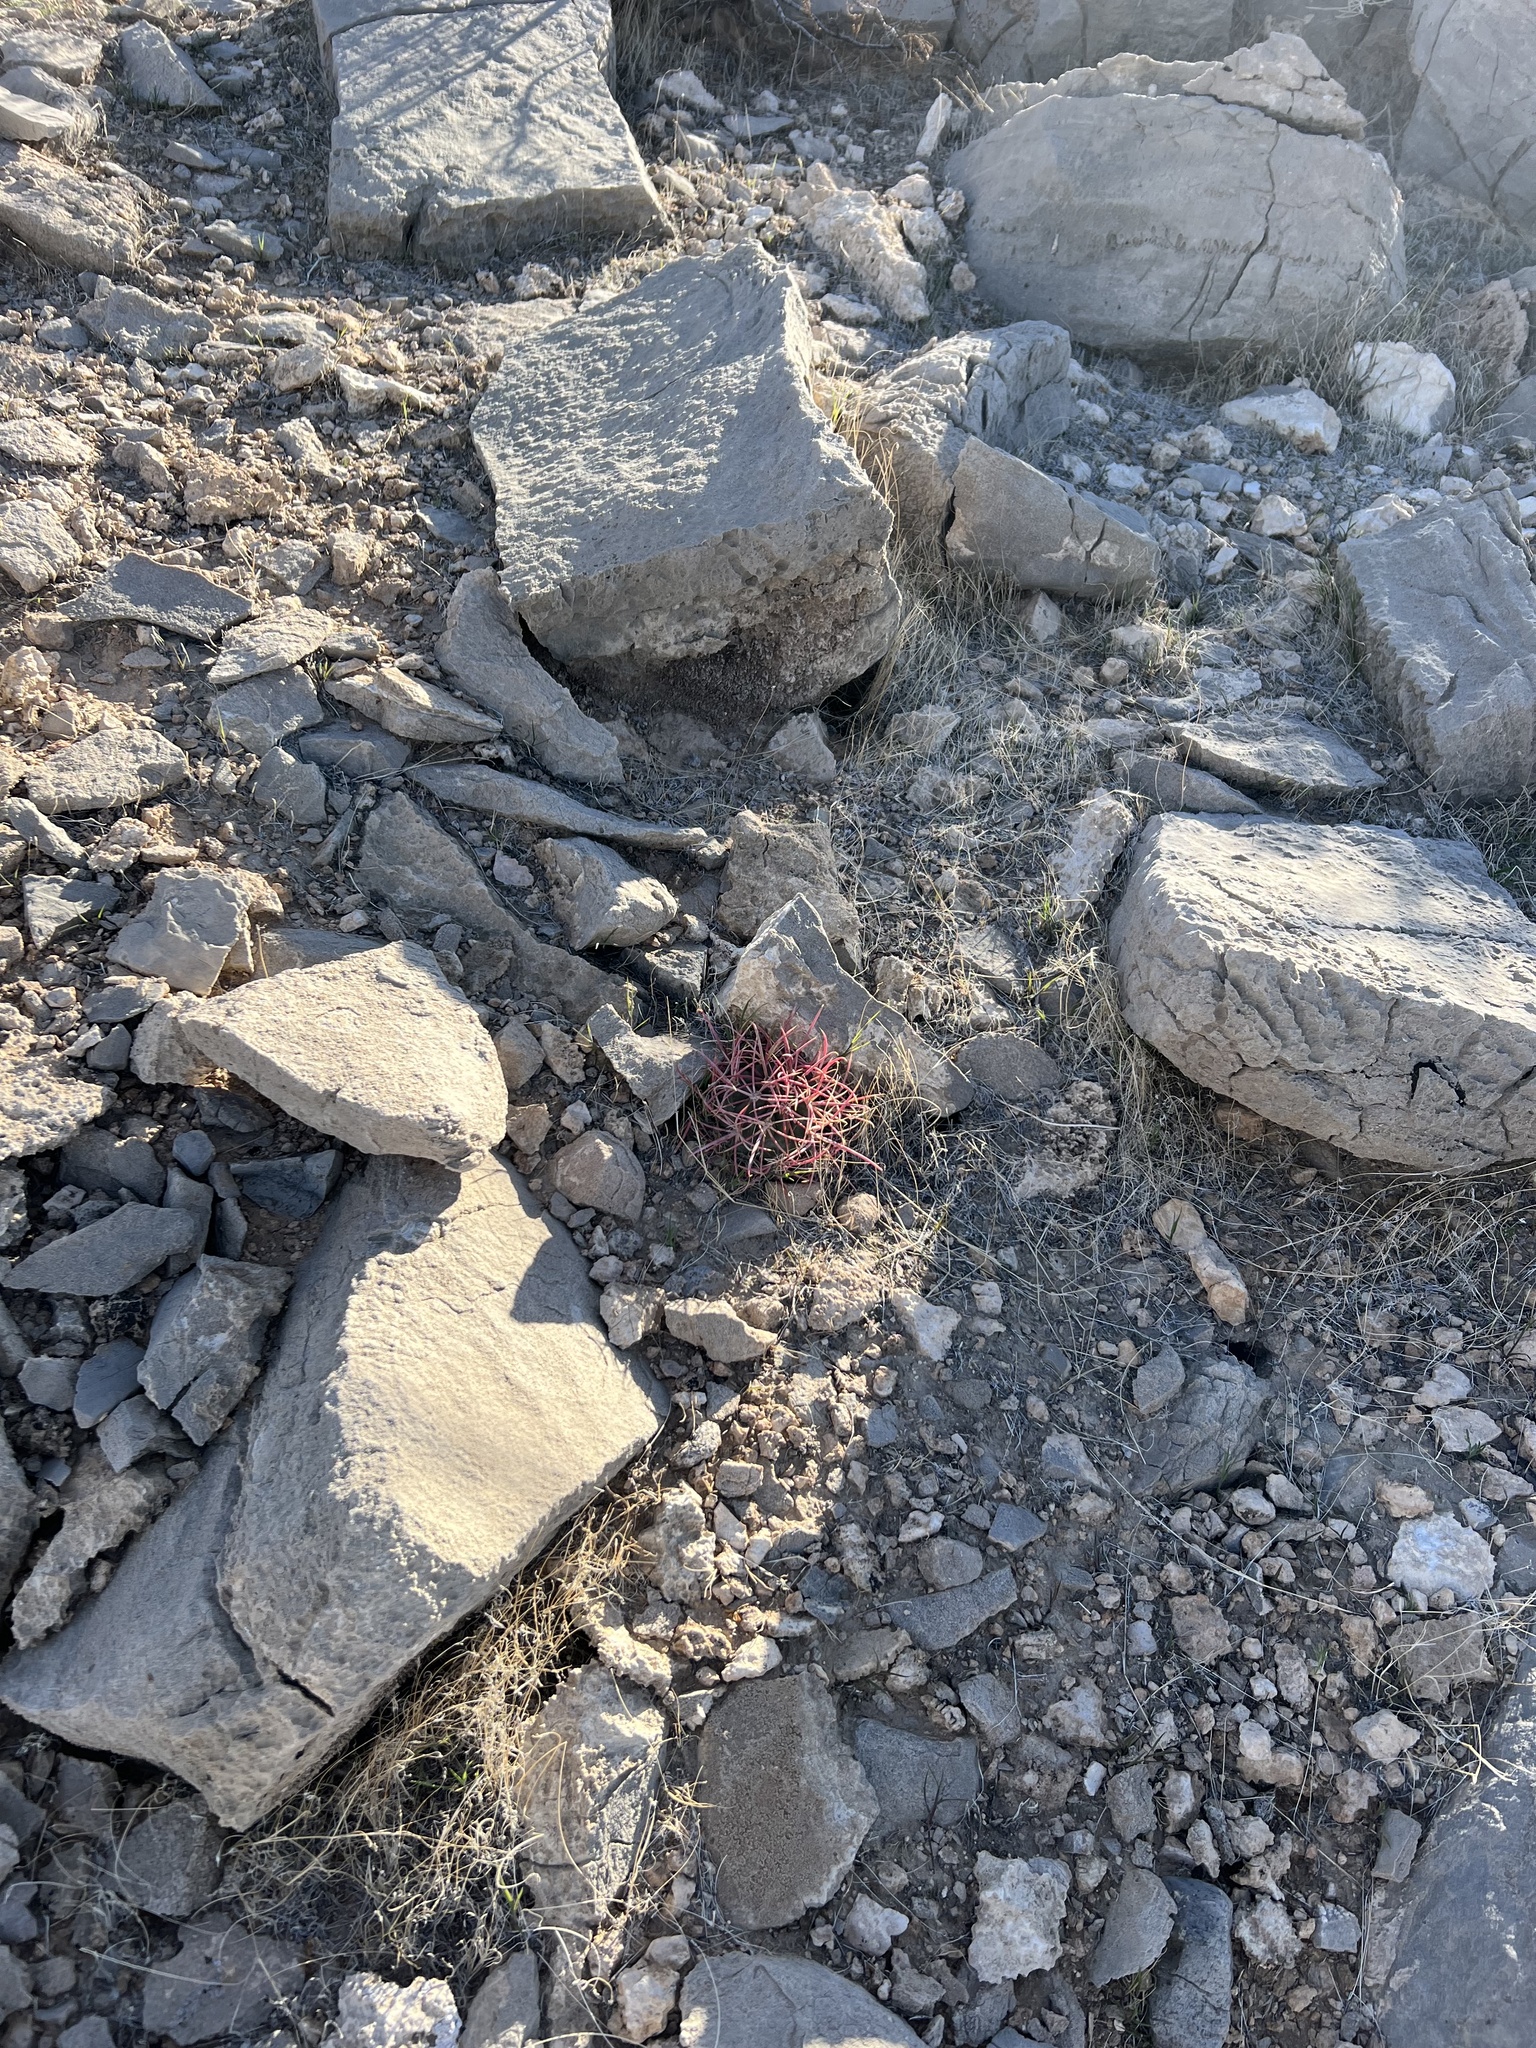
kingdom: Plantae
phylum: Tracheophyta
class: Magnoliopsida
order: Caryophyllales
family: Cactaceae
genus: Ferocactus
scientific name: Ferocactus cylindraceus
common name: California barrel cactus
